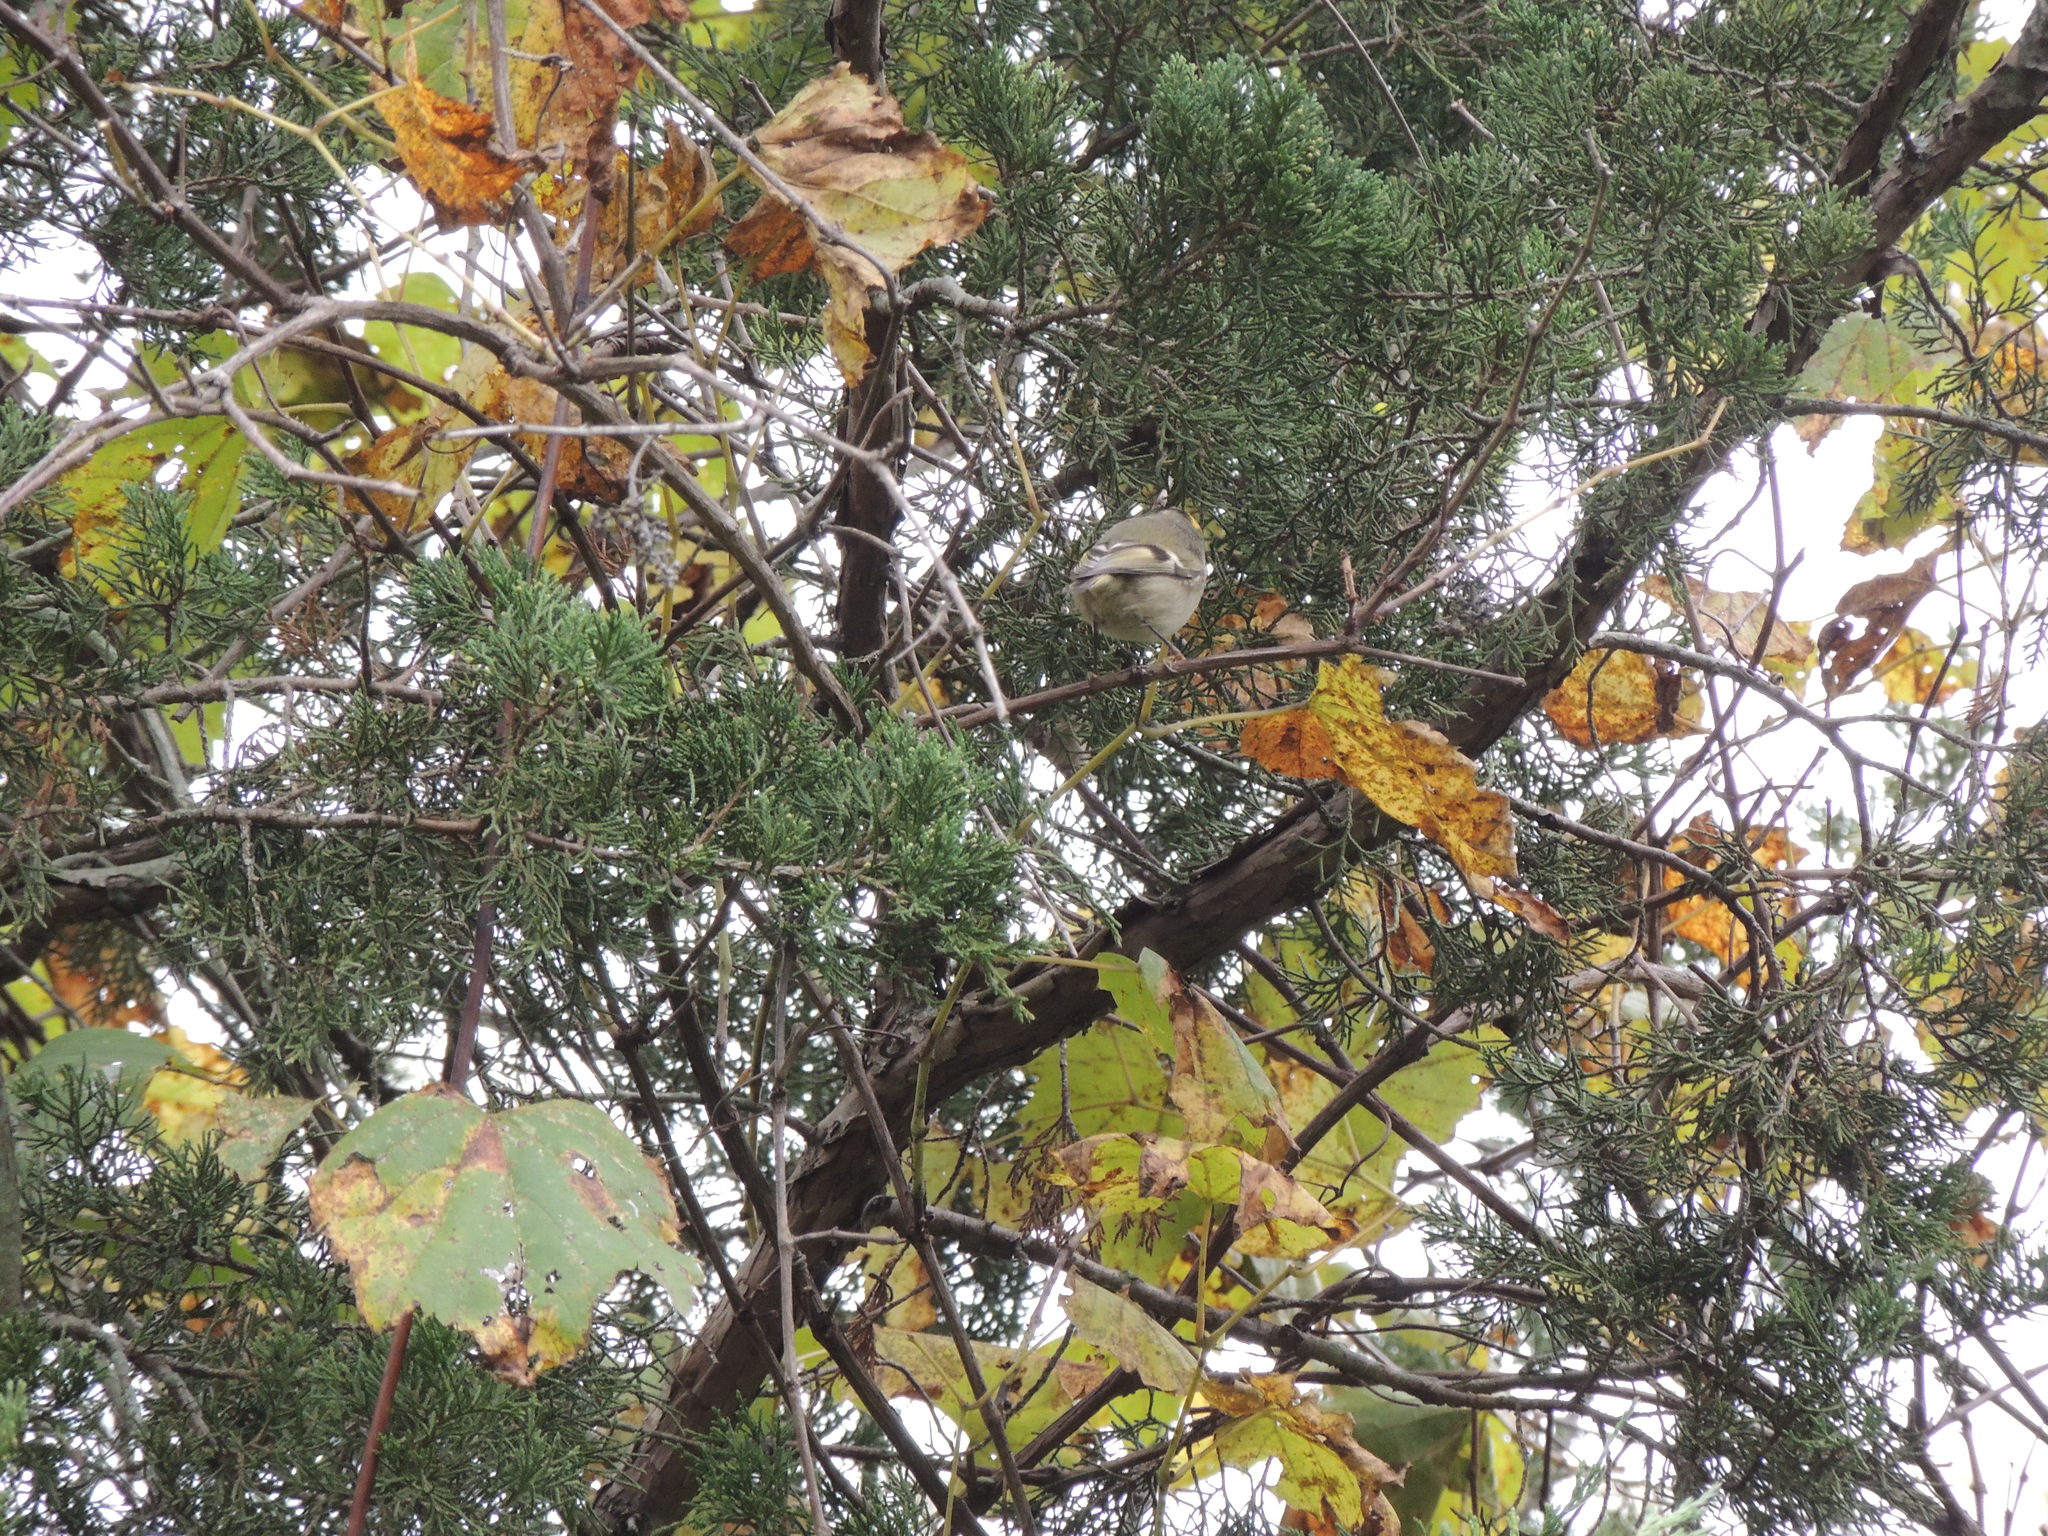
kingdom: Animalia
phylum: Chordata
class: Aves
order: Passeriformes
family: Regulidae
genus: Regulus
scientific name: Regulus satrapa
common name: Golden-crowned kinglet
